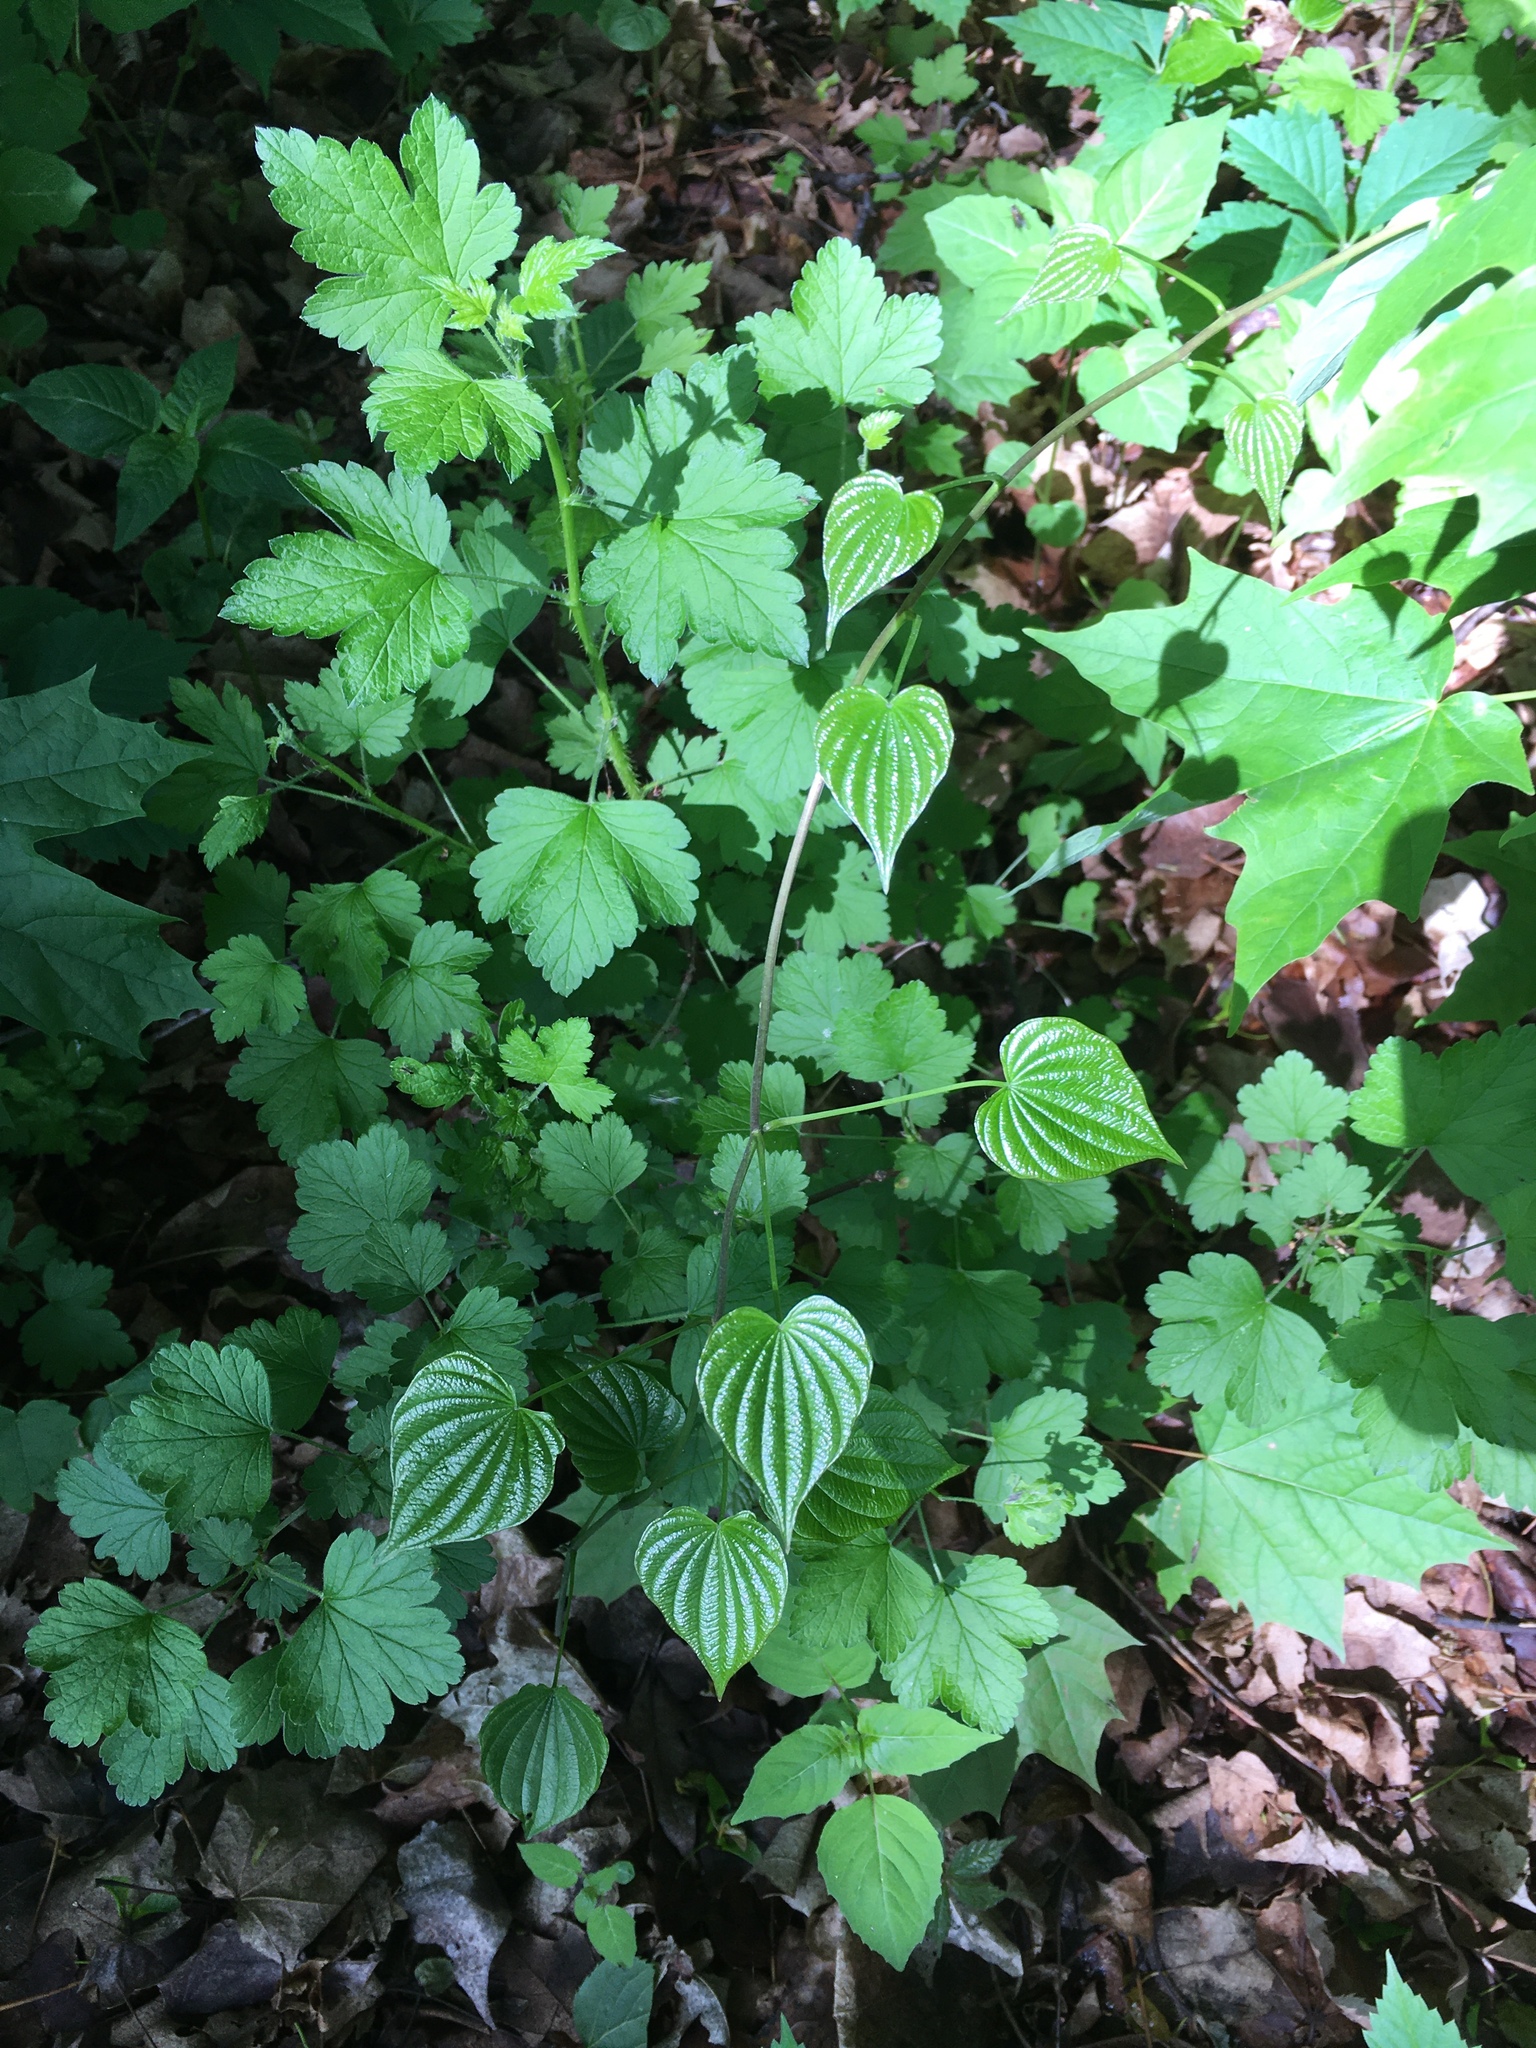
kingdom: Plantae
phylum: Tracheophyta
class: Liliopsida
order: Dioscoreales
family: Dioscoreaceae
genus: Dioscorea
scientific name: Dioscorea villosa
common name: Wild yam
